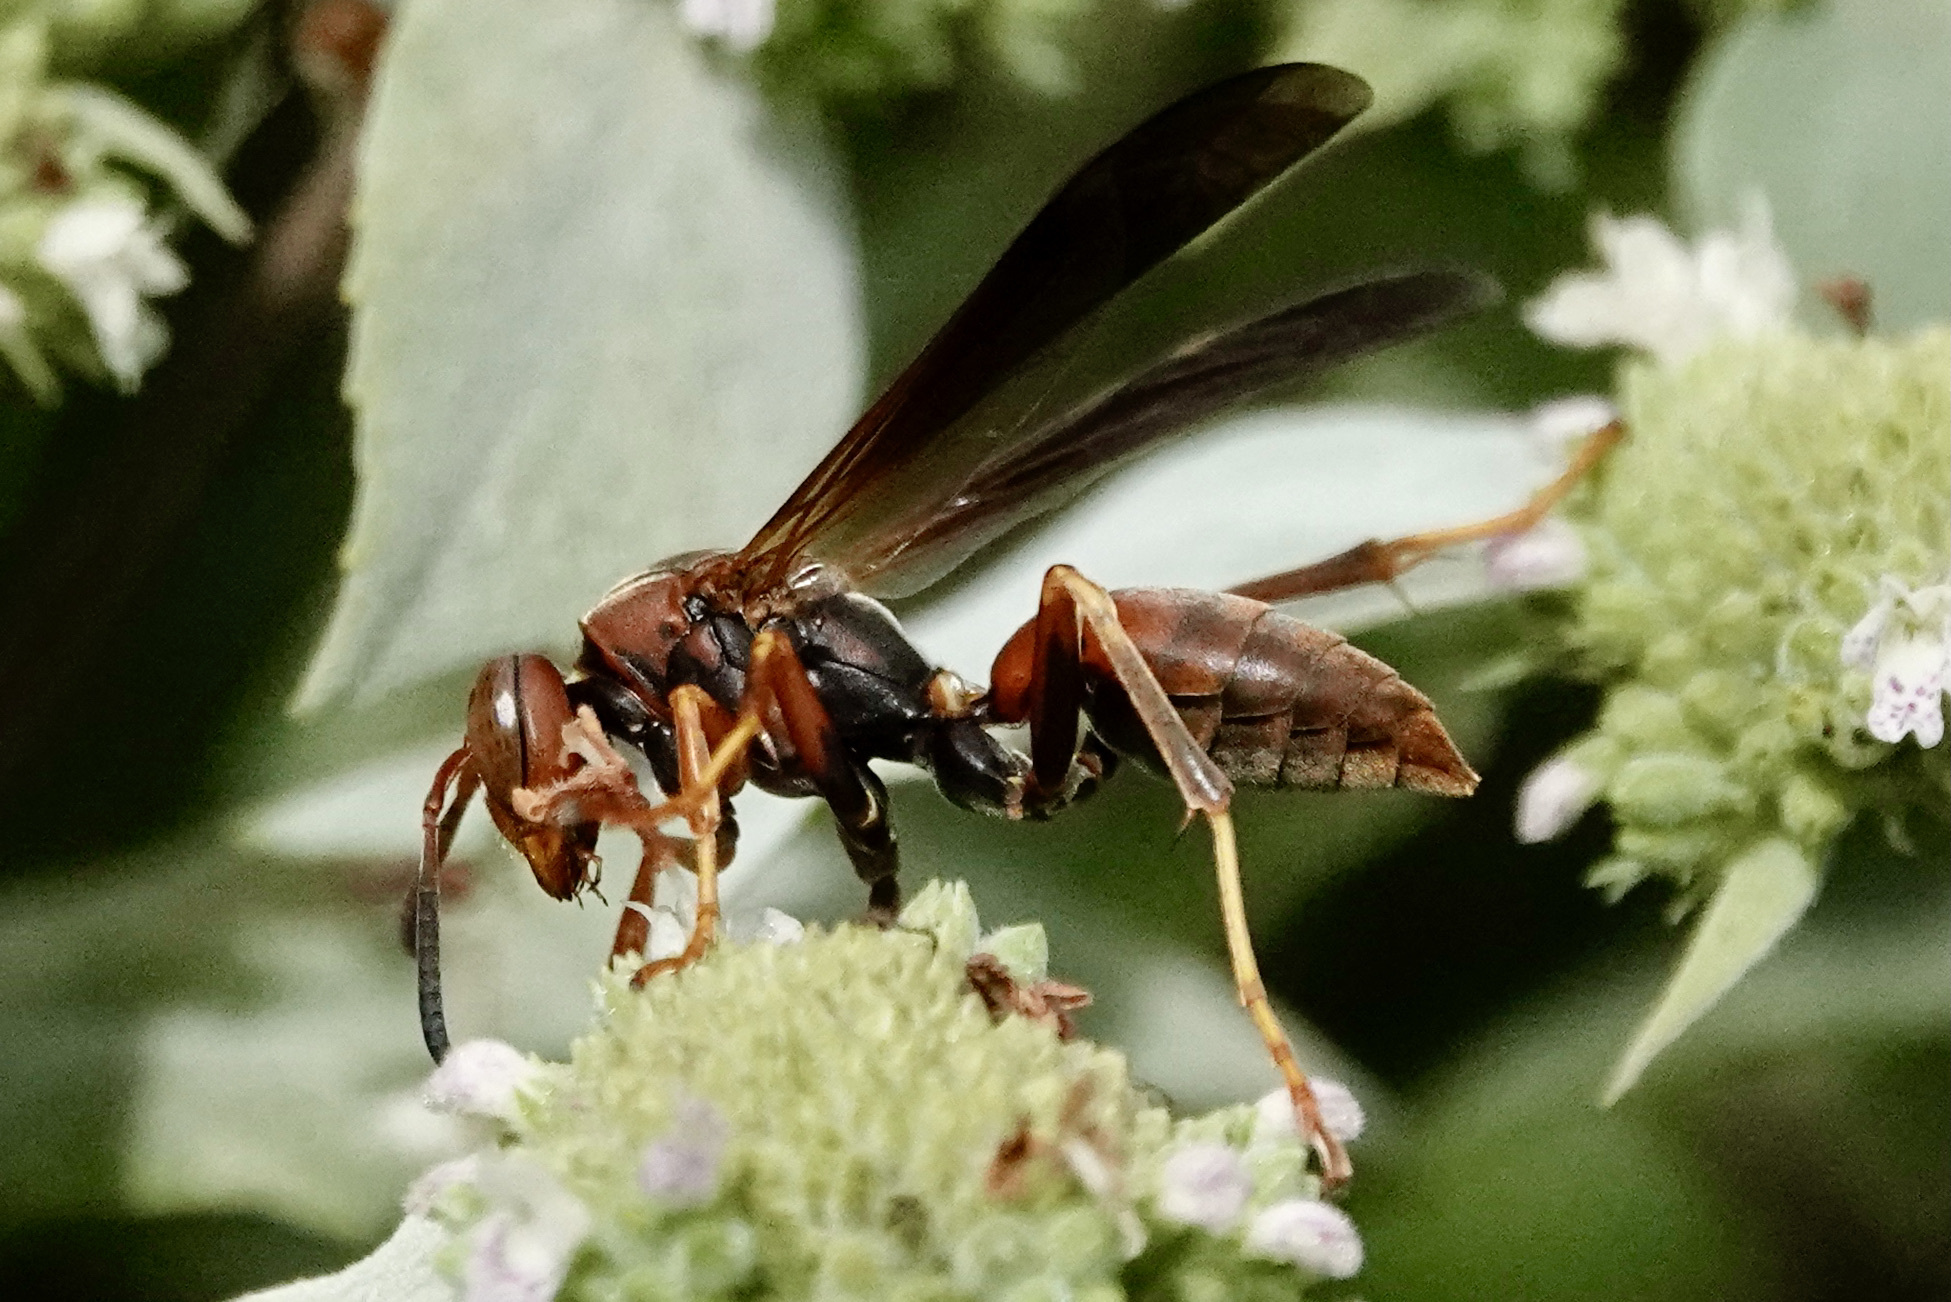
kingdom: Animalia
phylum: Arthropoda
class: Insecta
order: Hymenoptera
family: Eumenidae
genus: Polistes
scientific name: Polistes fuscatus
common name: Dark paper wasp
